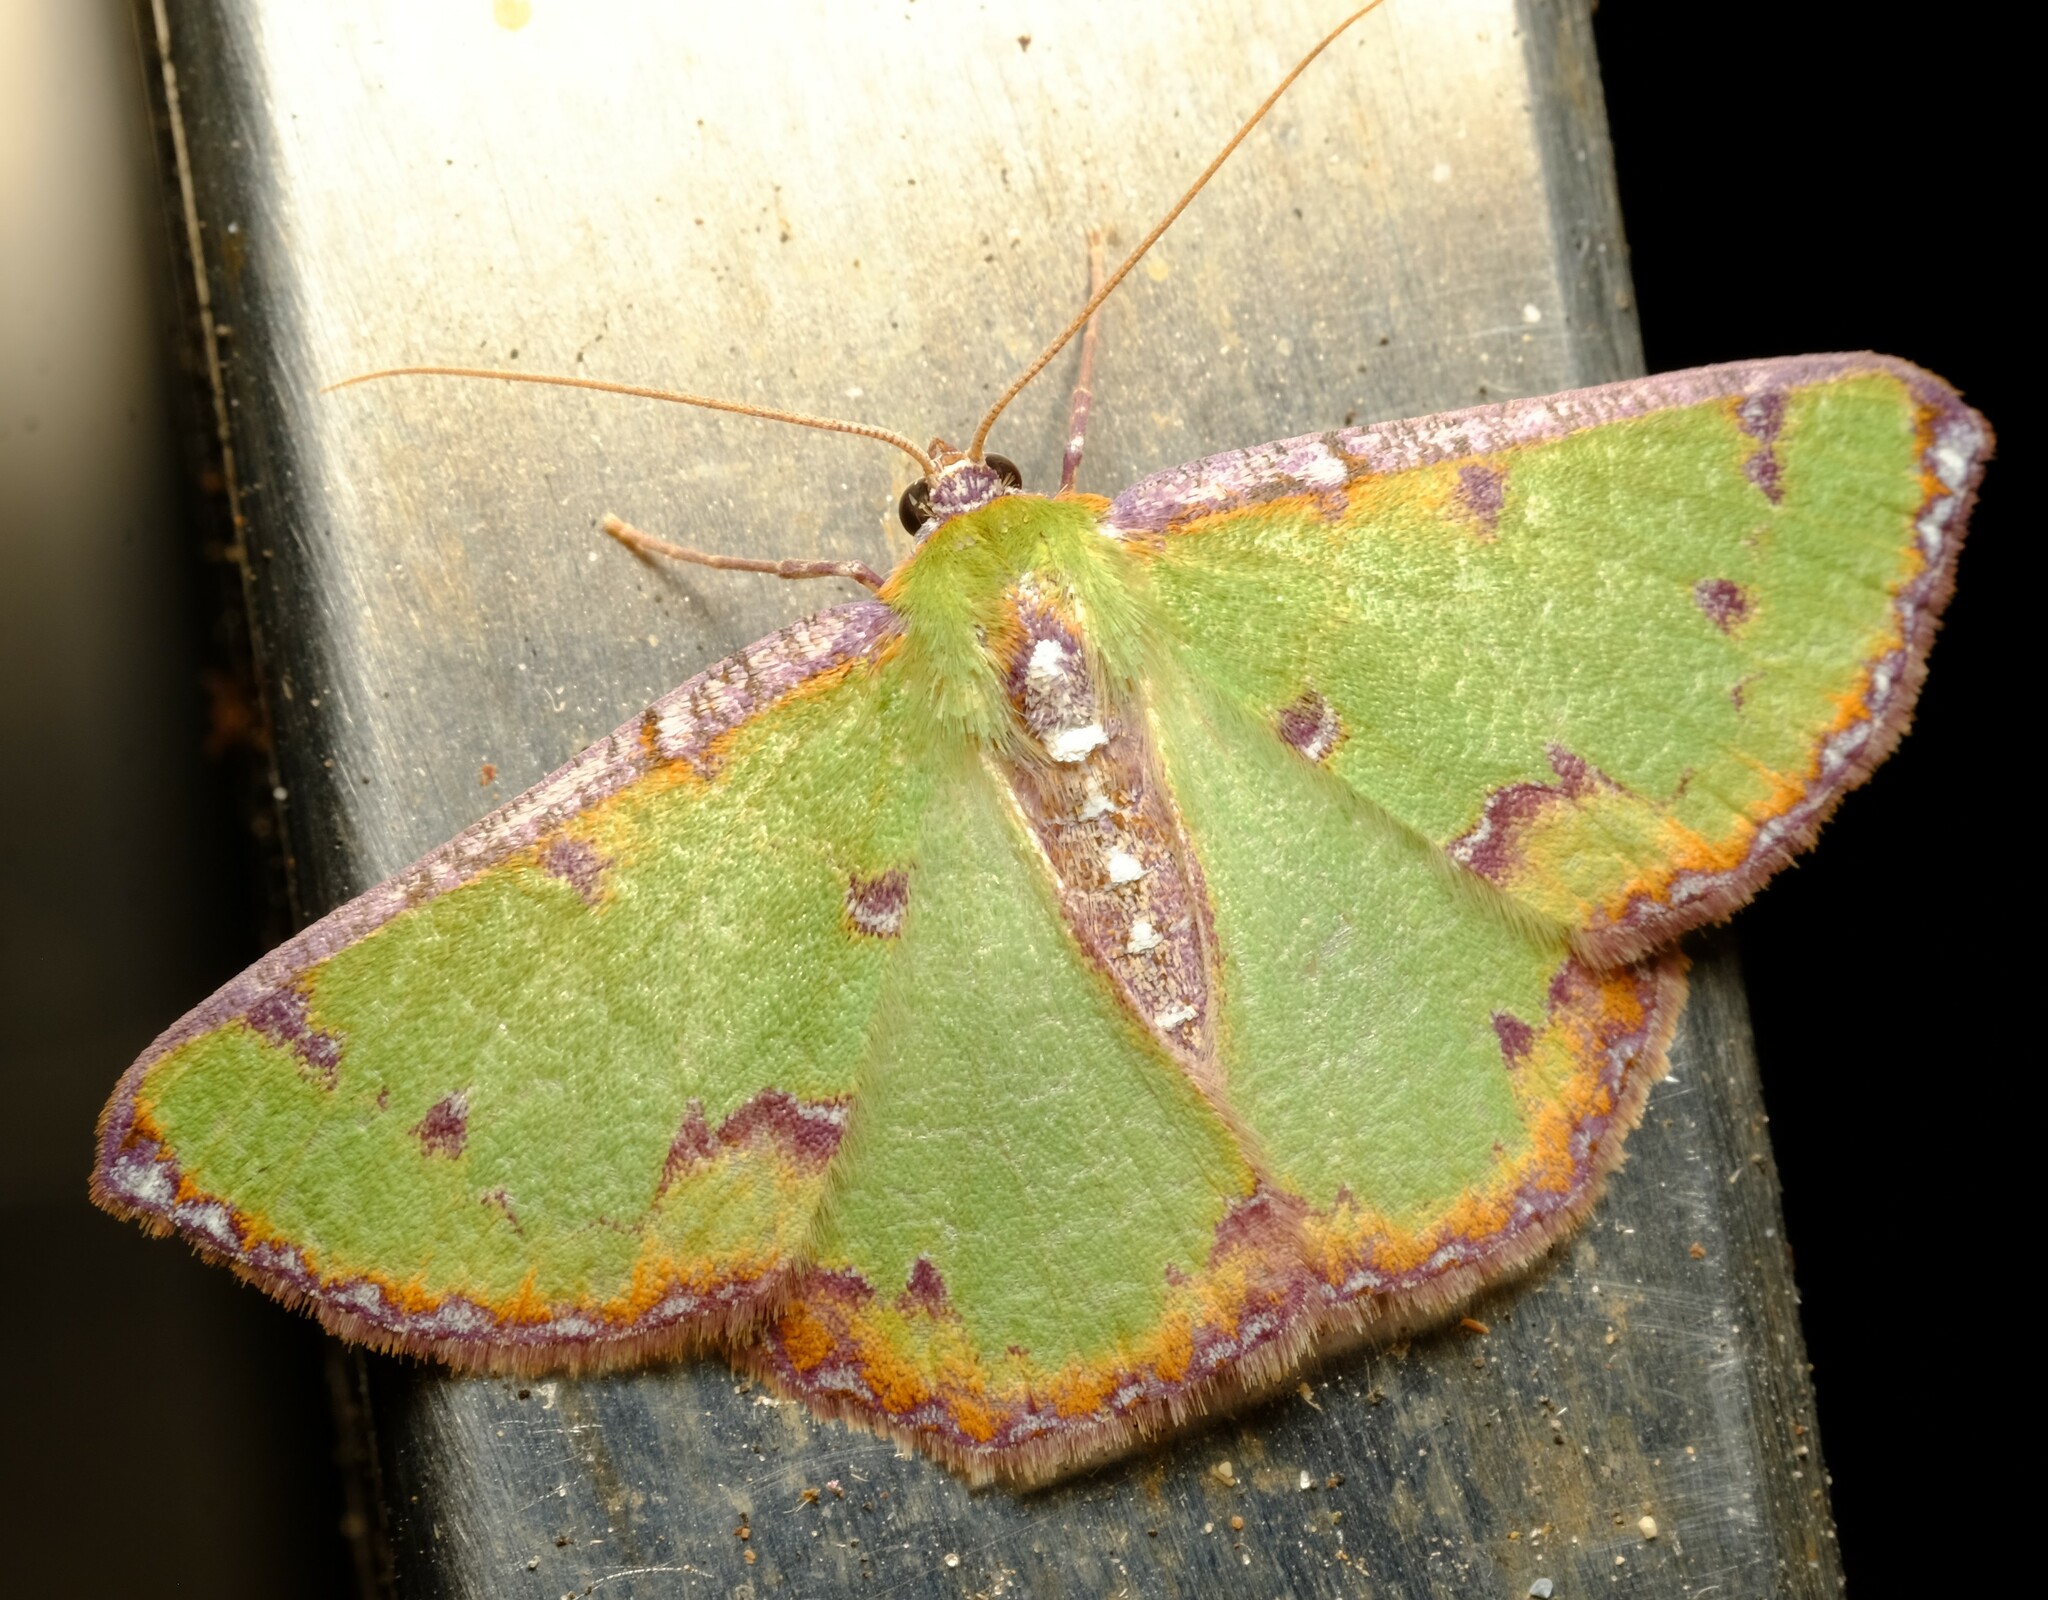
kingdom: Animalia
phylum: Arthropoda
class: Insecta
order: Lepidoptera
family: Geometridae
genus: Eucyclodes
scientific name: Eucyclodes buprestaria
